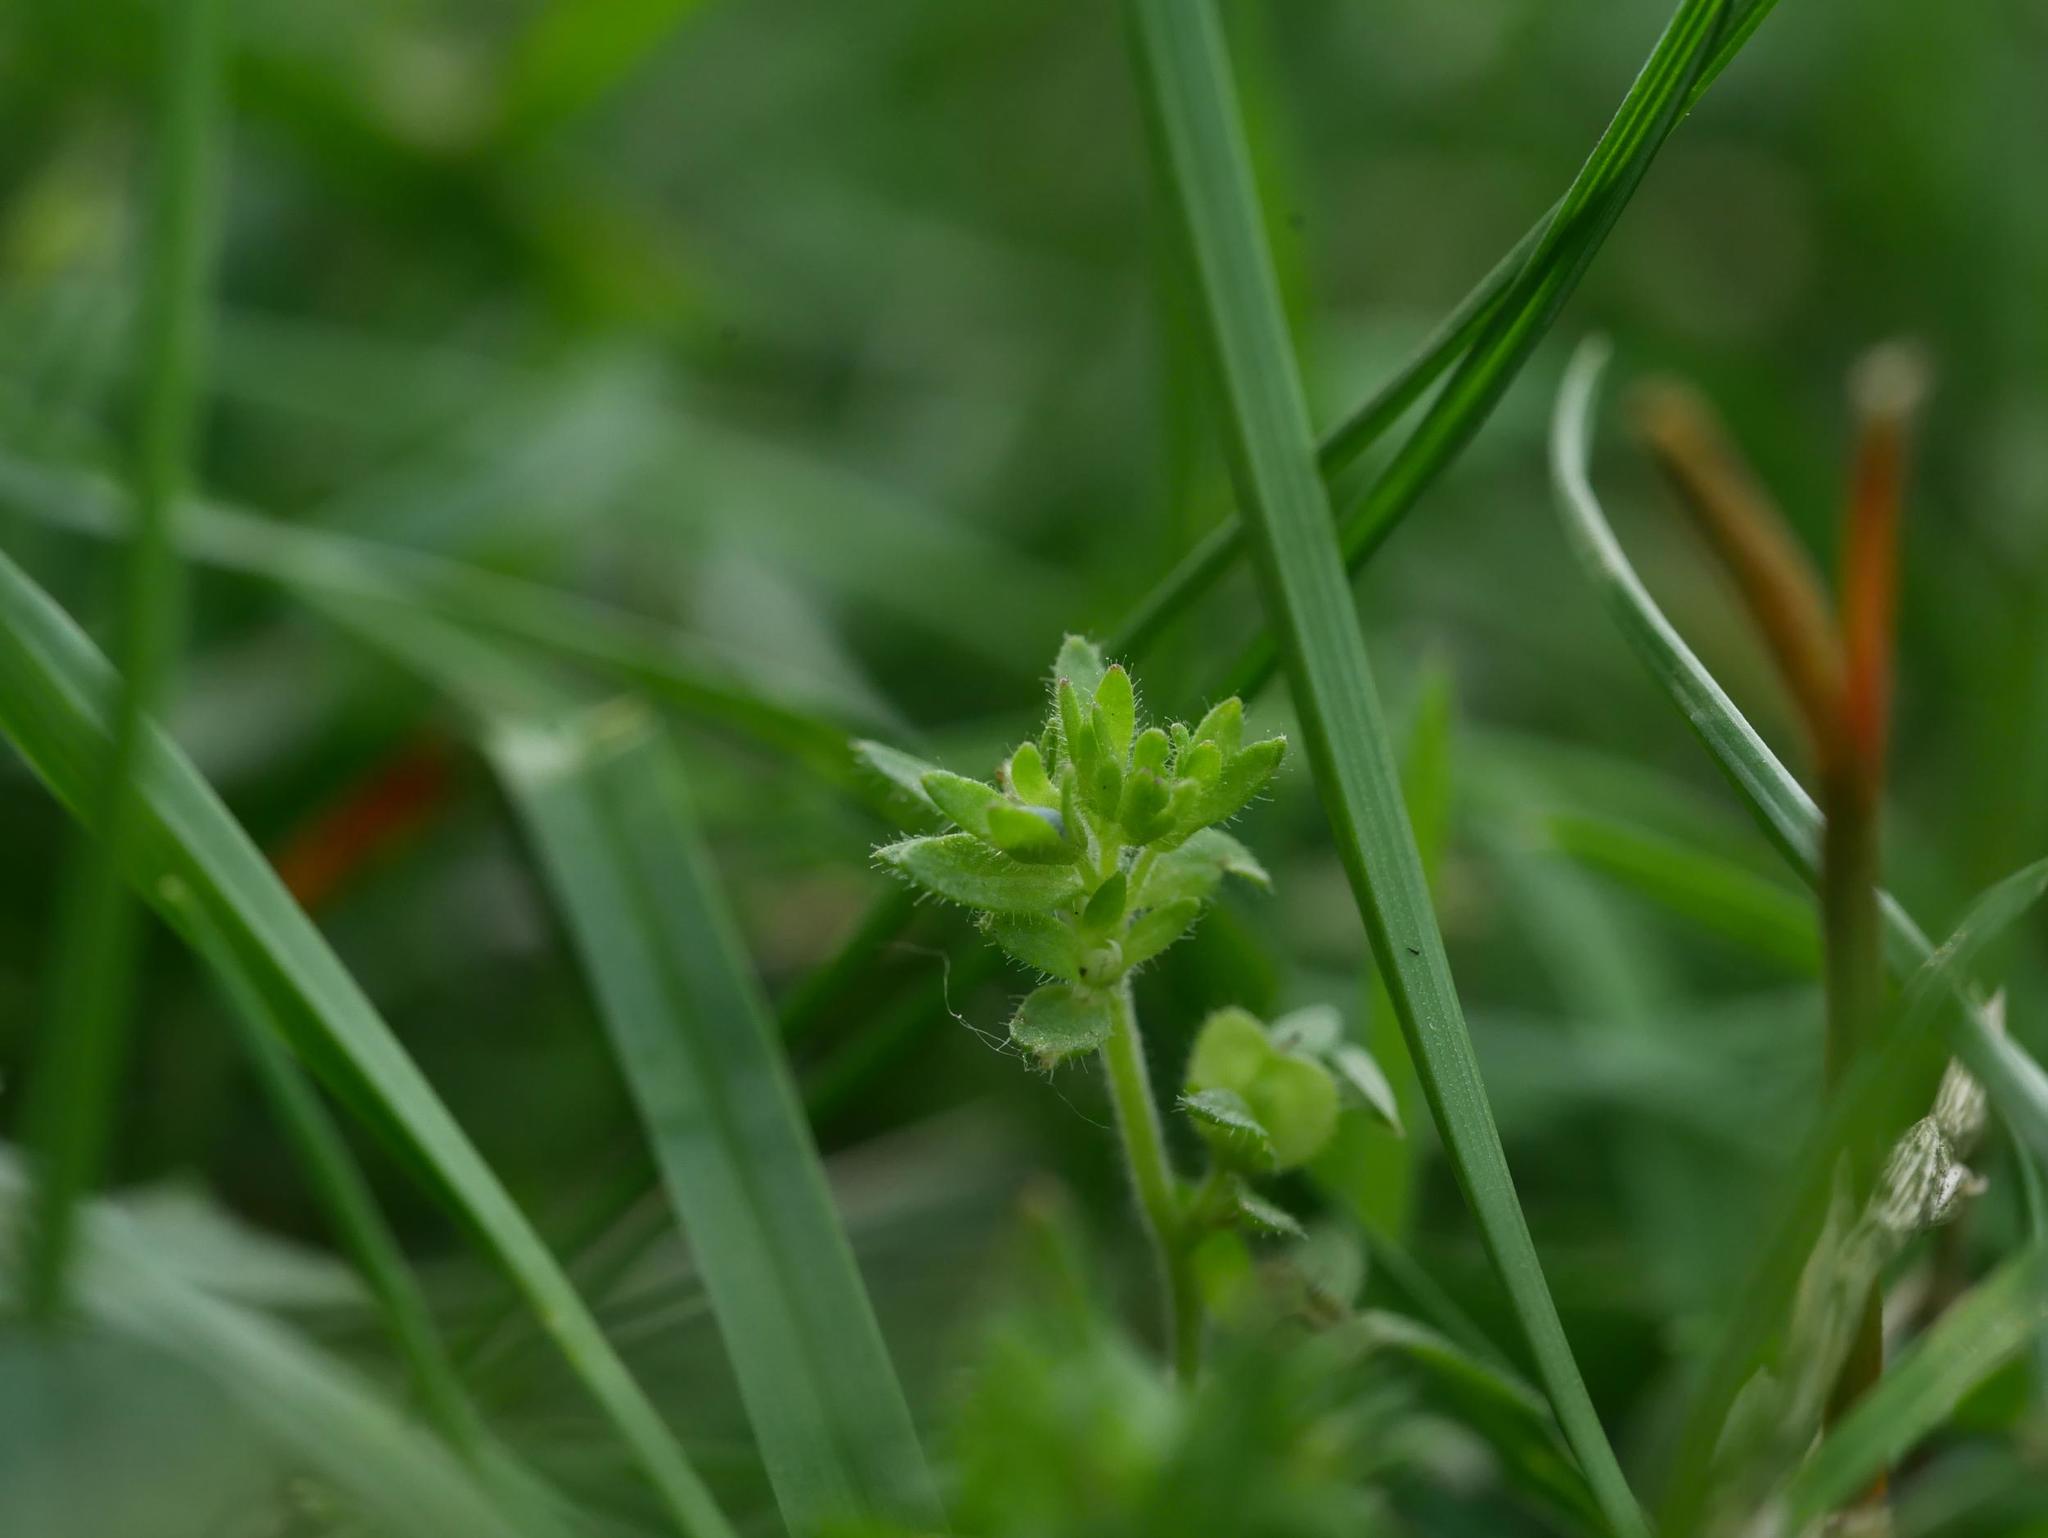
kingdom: Plantae
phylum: Tracheophyta
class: Magnoliopsida
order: Lamiales
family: Plantaginaceae
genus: Veronica
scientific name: Veronica arvensis
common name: Corn speedwell
